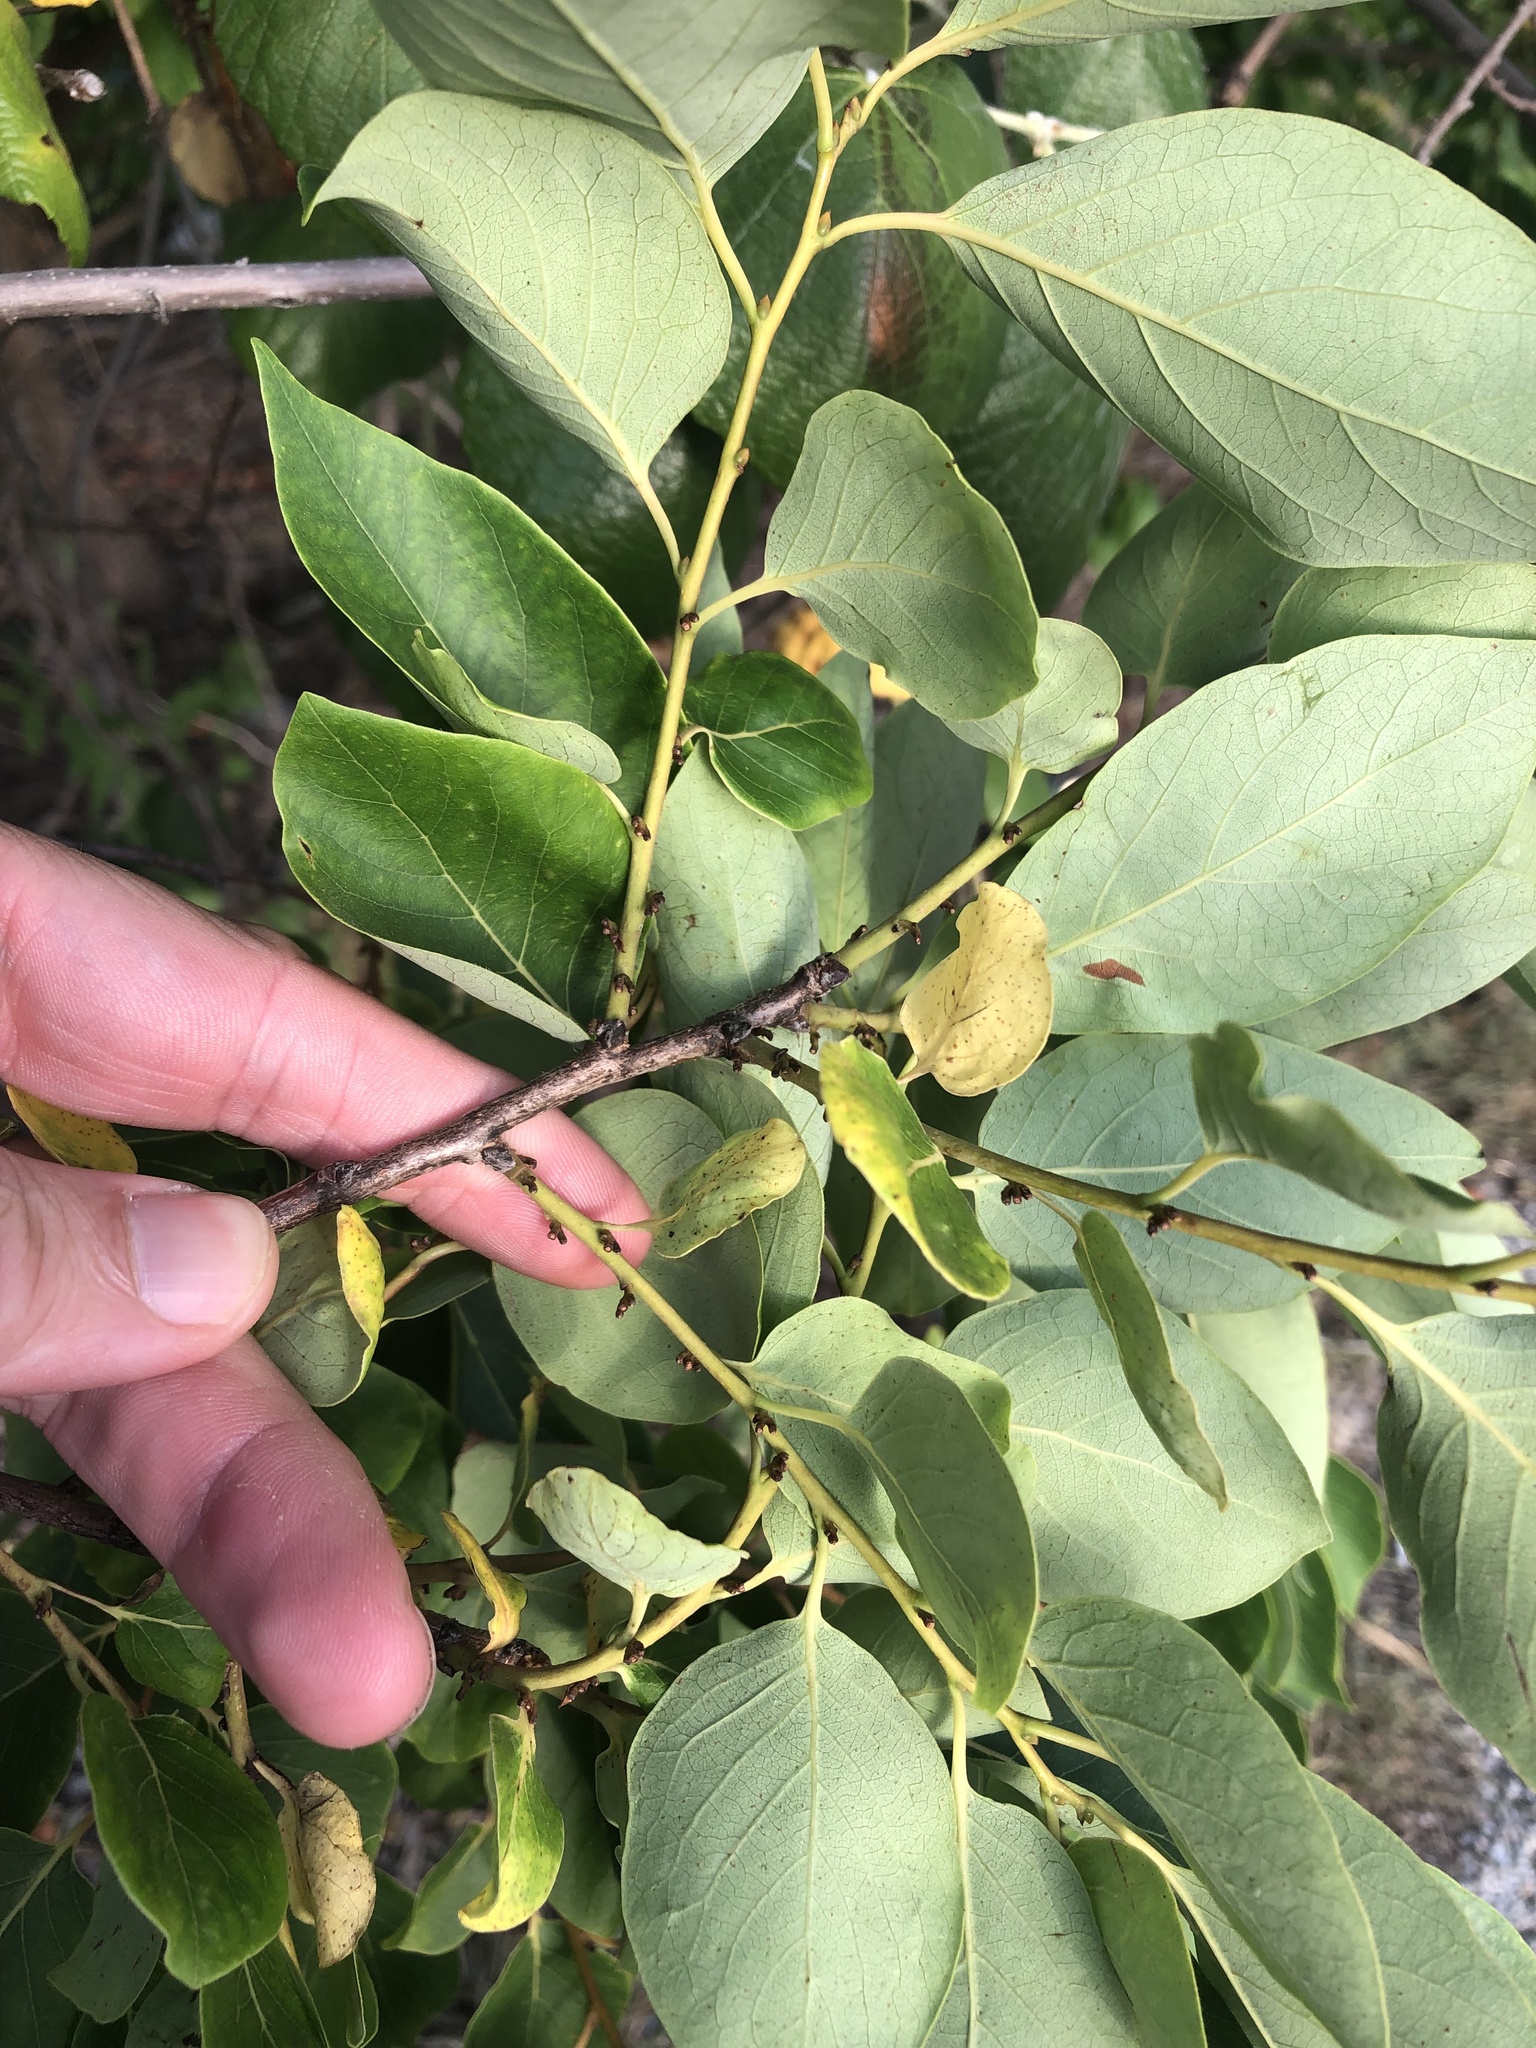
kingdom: Plantae
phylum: Tracheophyta
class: Magnoliopsida
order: Ericales
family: Ebenaceae
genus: Diospyros
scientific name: Diospyros virginiana
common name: Persimmon
